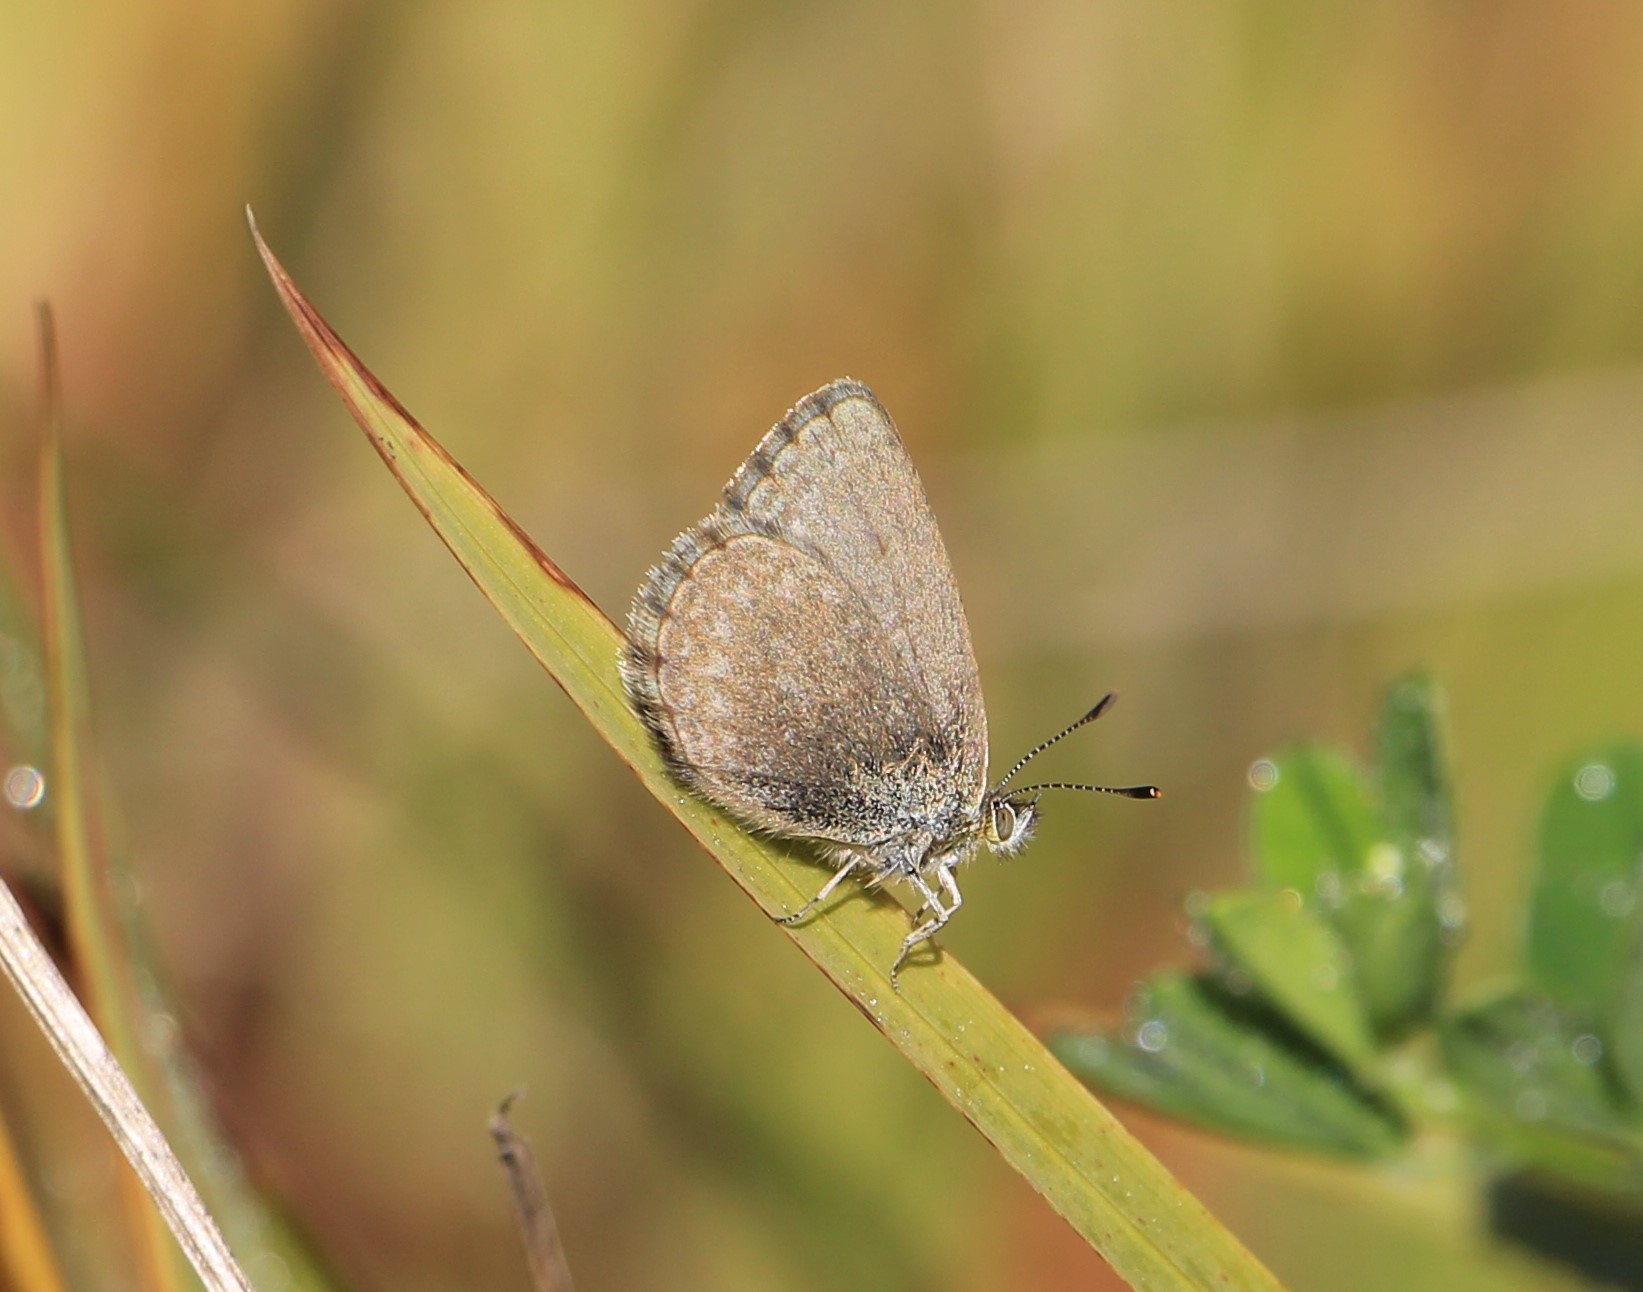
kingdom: Animalia
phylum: Arthropoda
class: Insecta
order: Lepidoptera
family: Lycaenidae
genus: Zizina
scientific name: Zizina labradus
